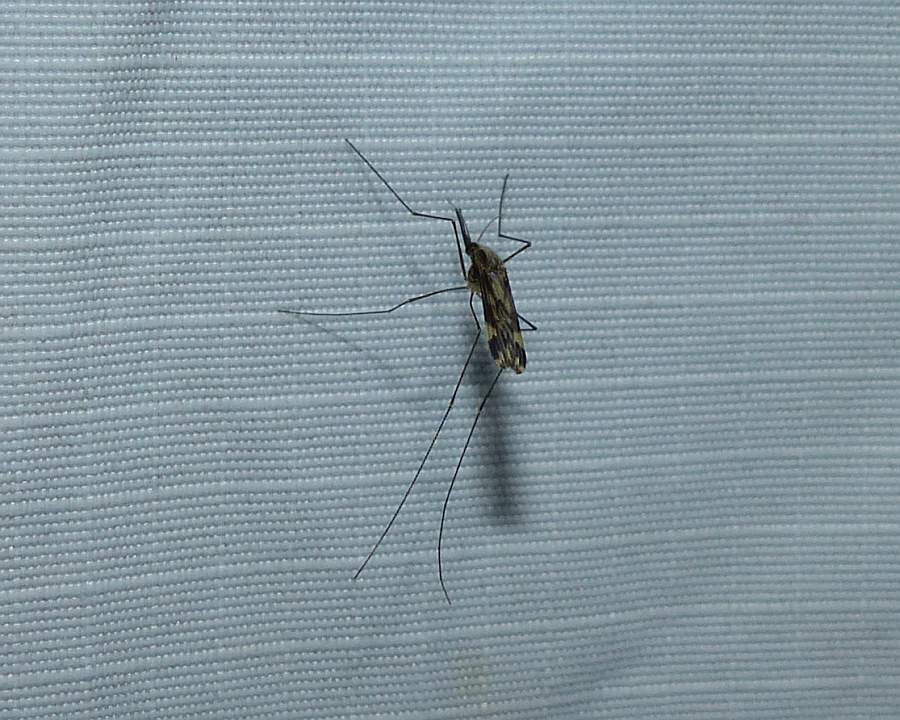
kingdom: Animalia
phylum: Arthropoda
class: Insecta
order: Diptera
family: Culicidae
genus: Anopheles
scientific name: Anopheles punctipennis
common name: Woodland malaria mosquito
